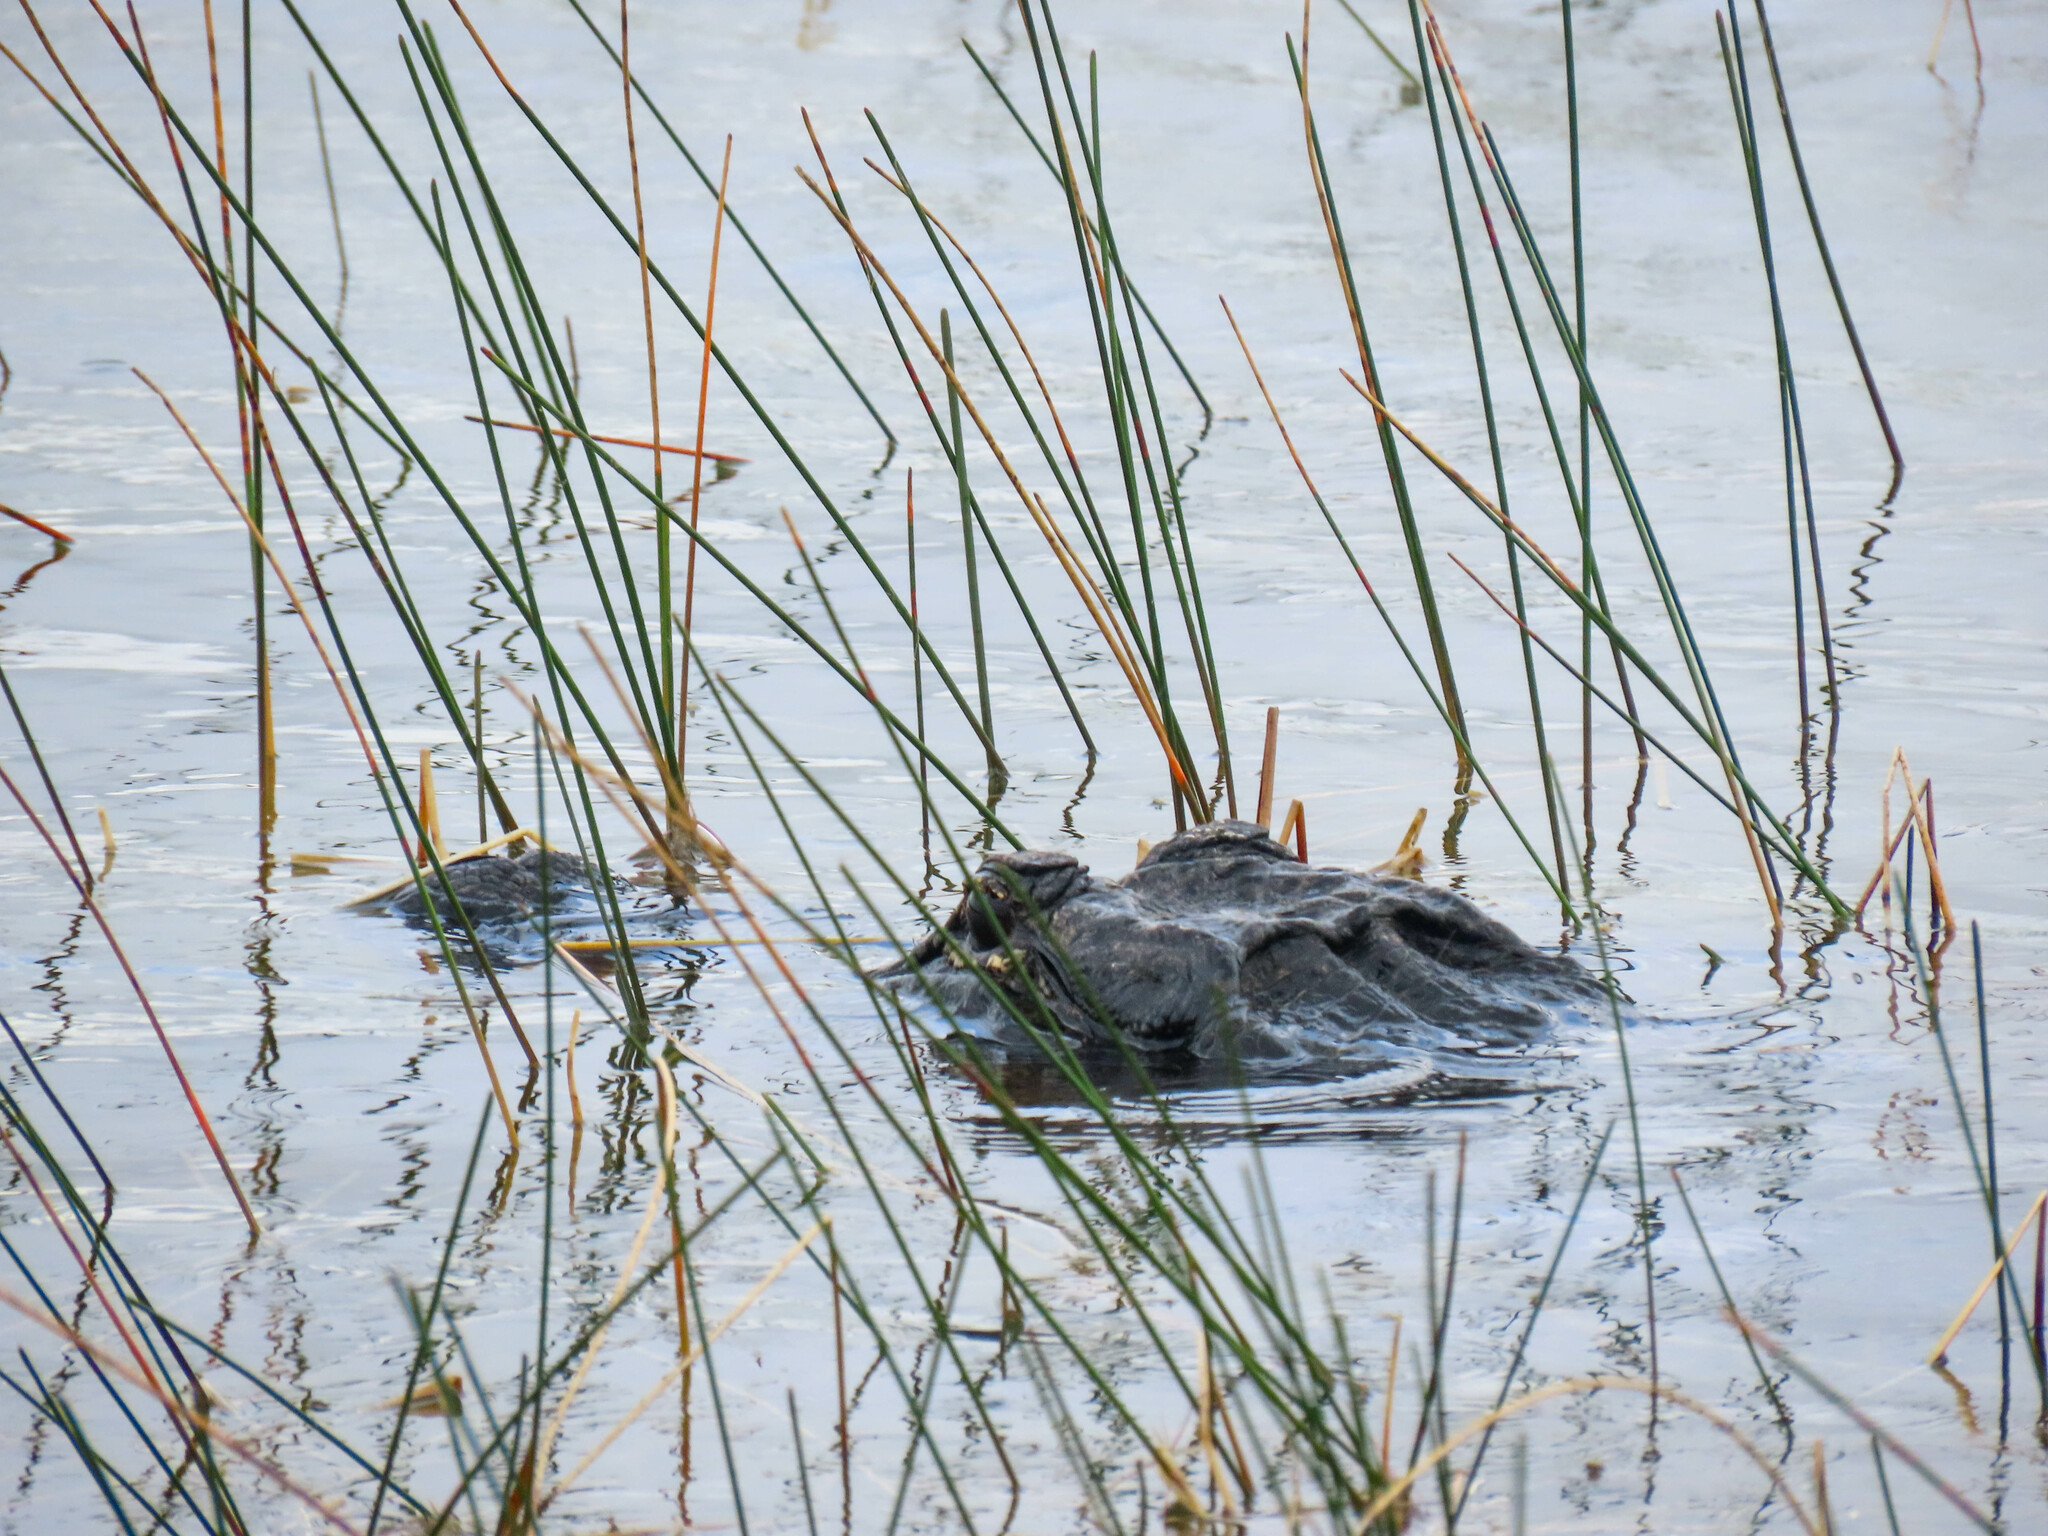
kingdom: Animalia
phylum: Chordata
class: Crocodylia
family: Alligatoridae
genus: Alligator
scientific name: Alligator mississippiensis
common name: American alligator
